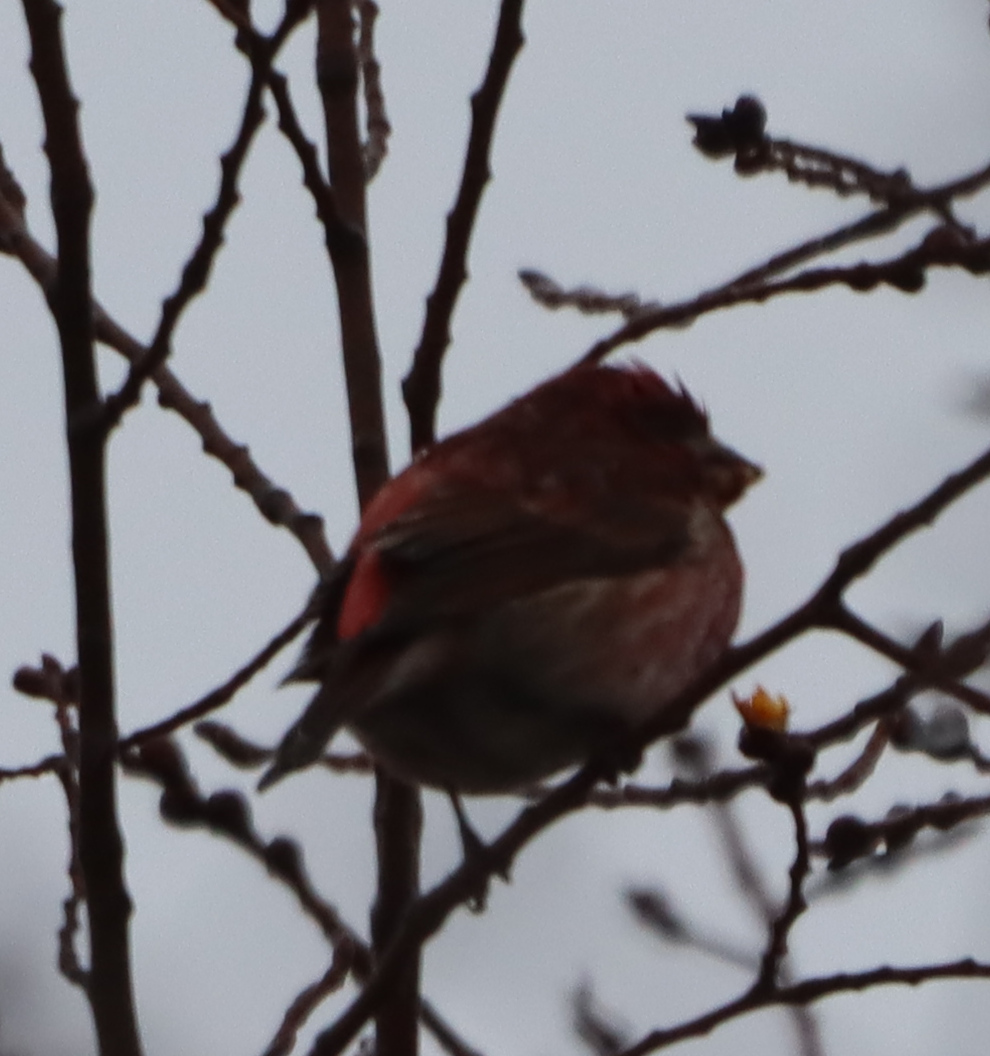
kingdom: Animalia
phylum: Chordata
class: Aves
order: Passeriformes
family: Fringillidae
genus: Haemorhous
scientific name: Haemorhous purpureus
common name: Purple finch
